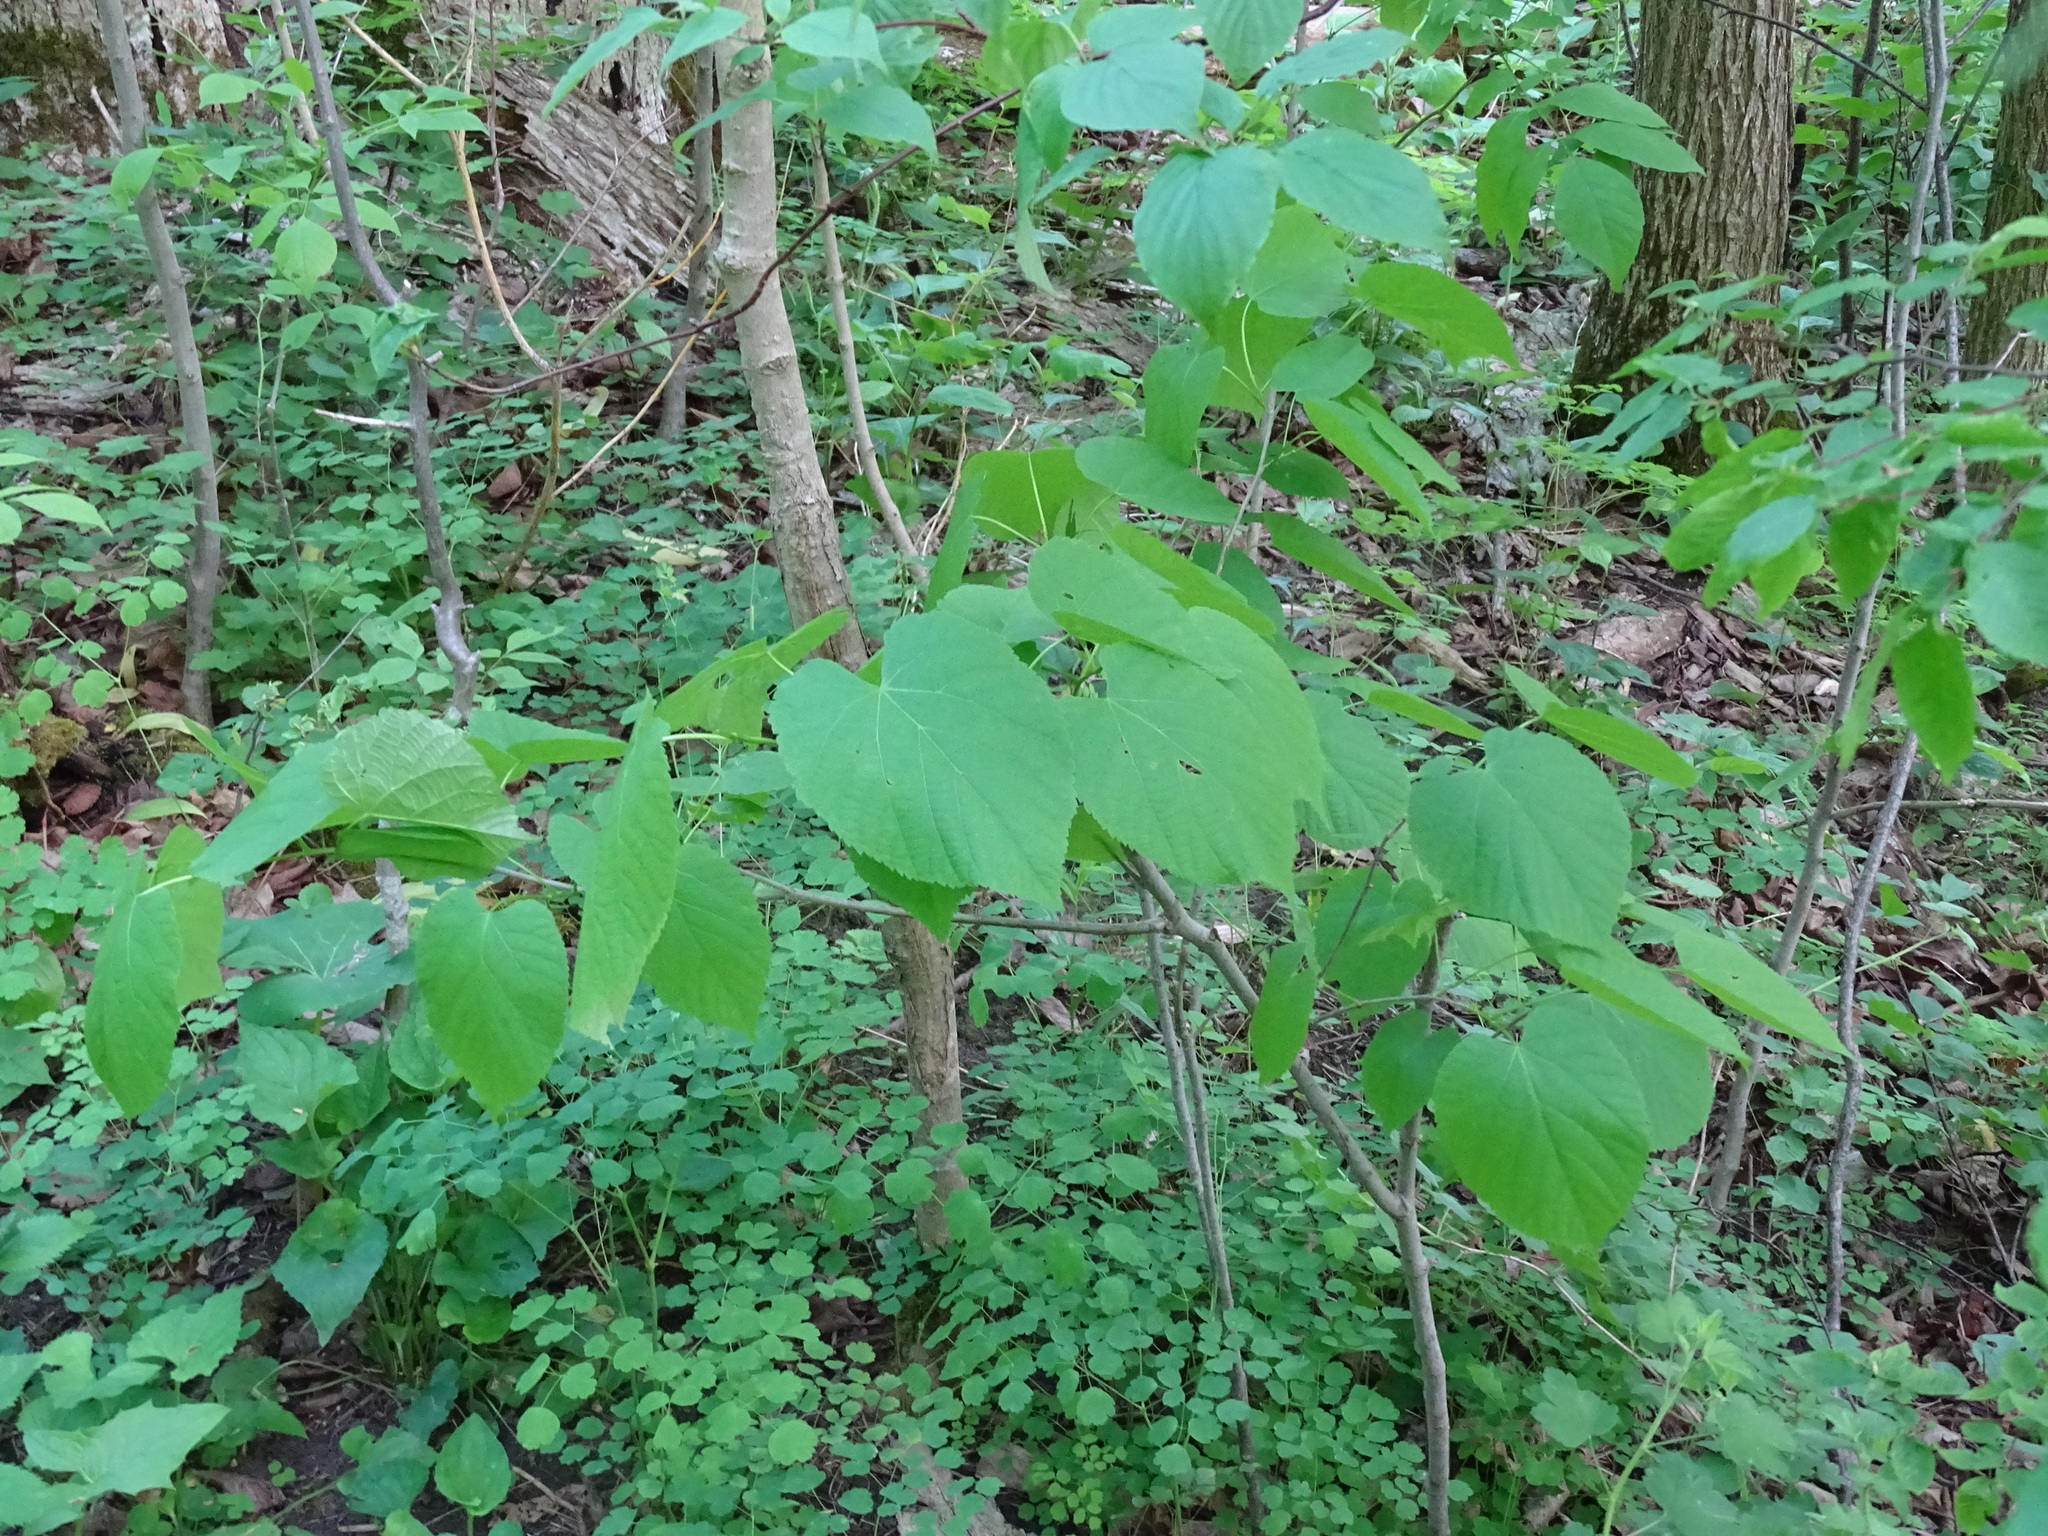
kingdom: Plantae
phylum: Tracheophyta
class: Magnoliopsida
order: Malvales
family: Malvaceae
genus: Tilia
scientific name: Tilia americana
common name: Basswood
